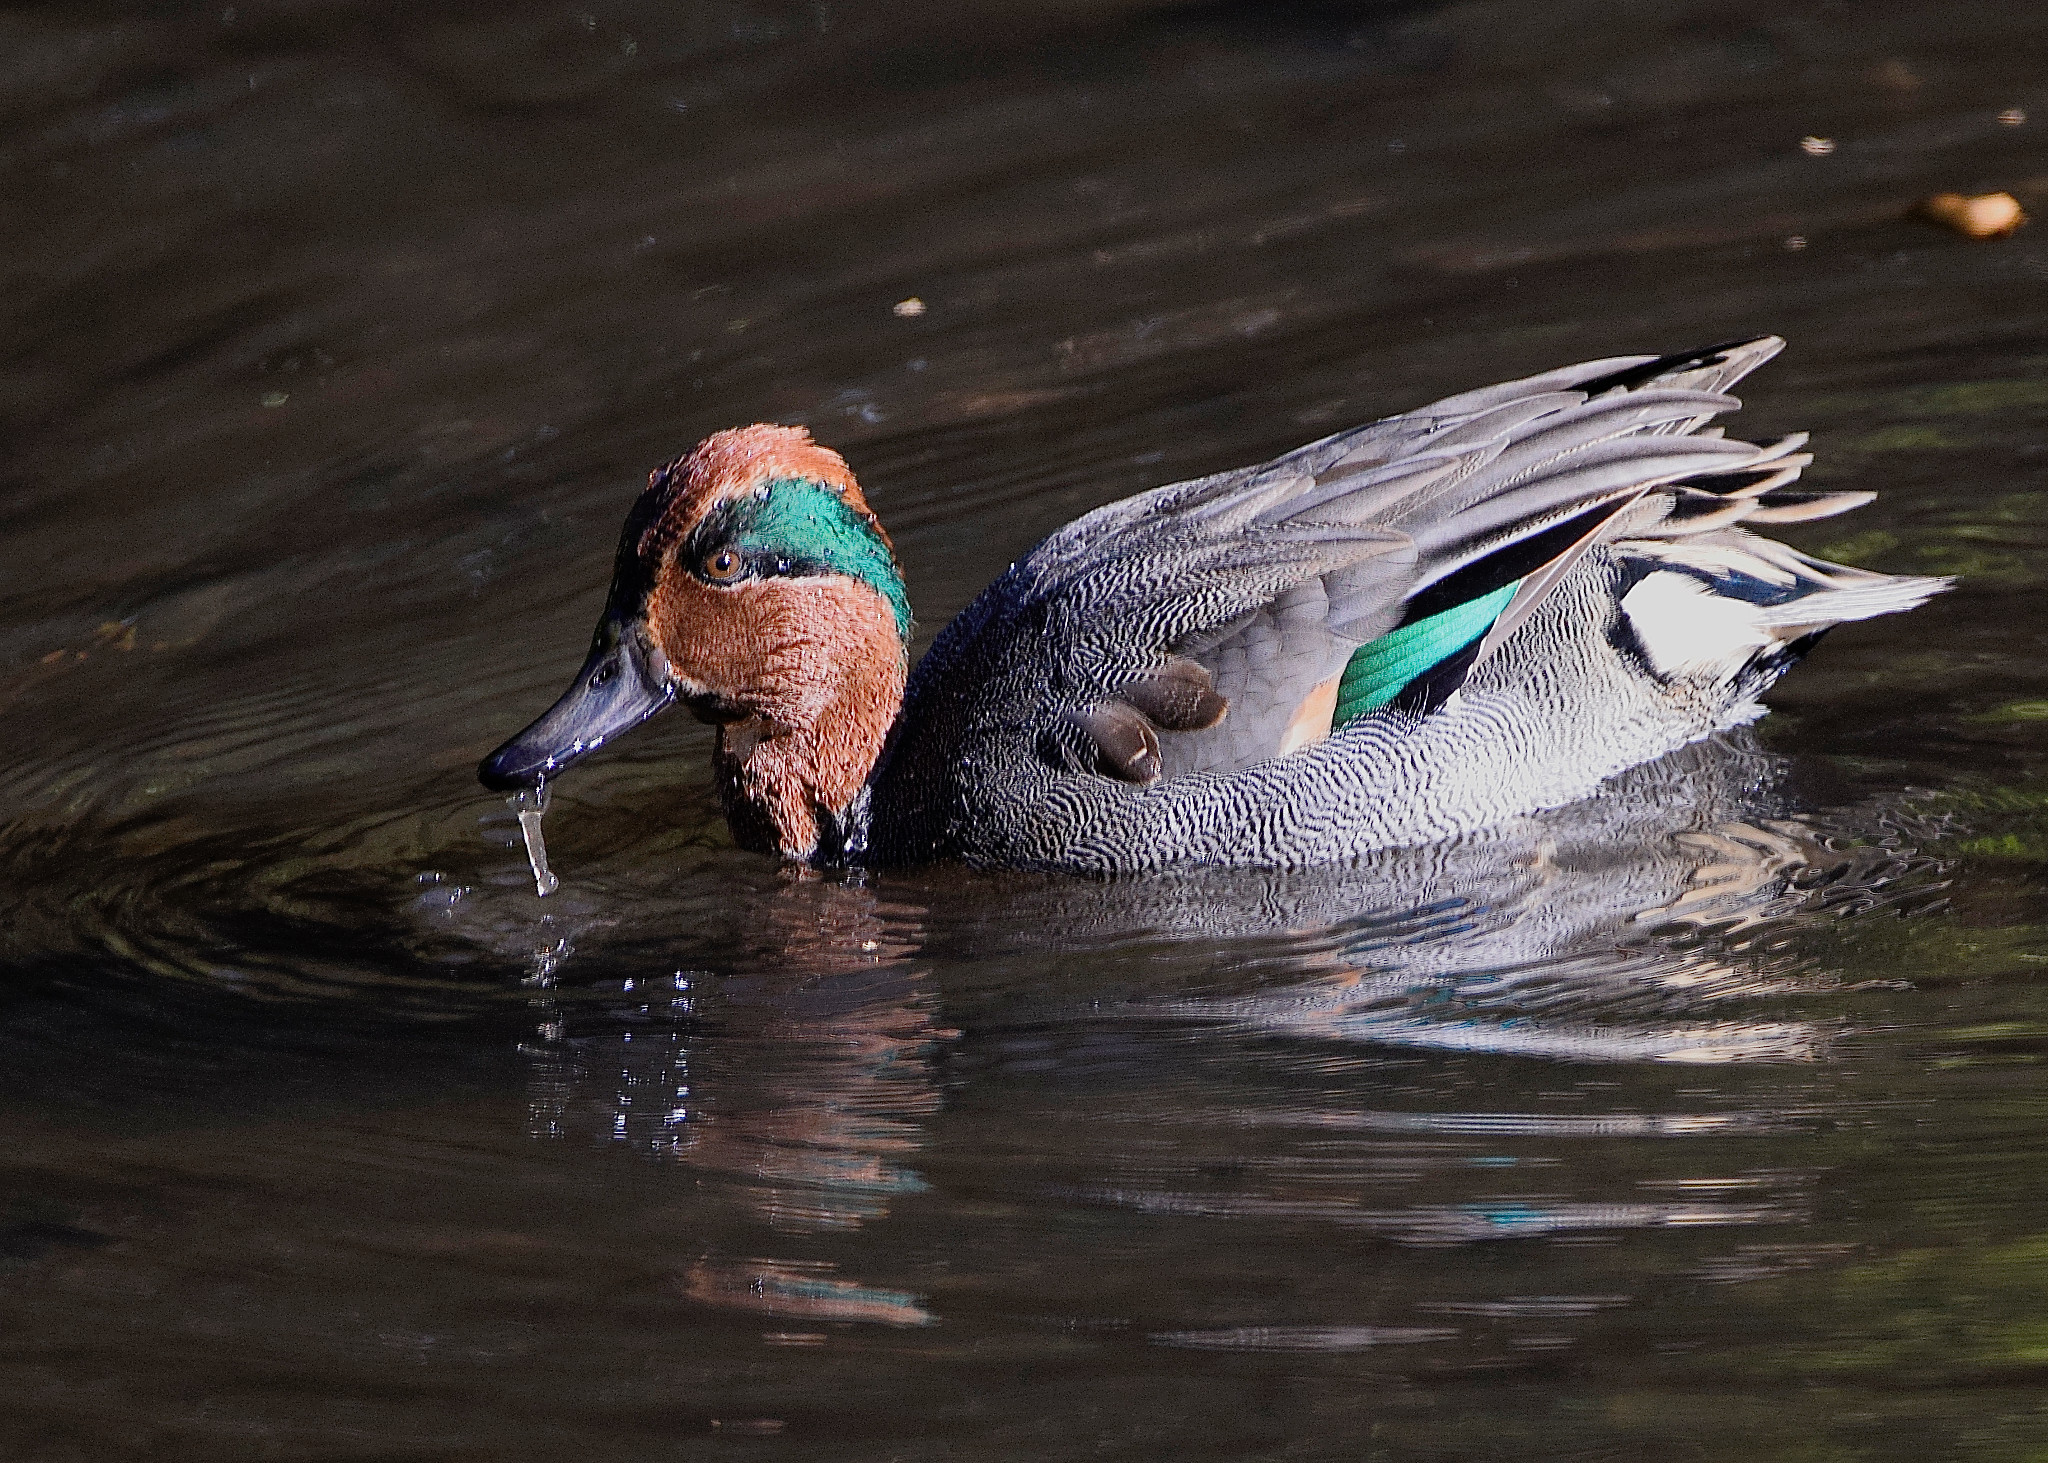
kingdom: Animalia
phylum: Chordata
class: Aves
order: Anseriformes
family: Anatidae
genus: Anas
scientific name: Anas crecca
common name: Eurasian teal
